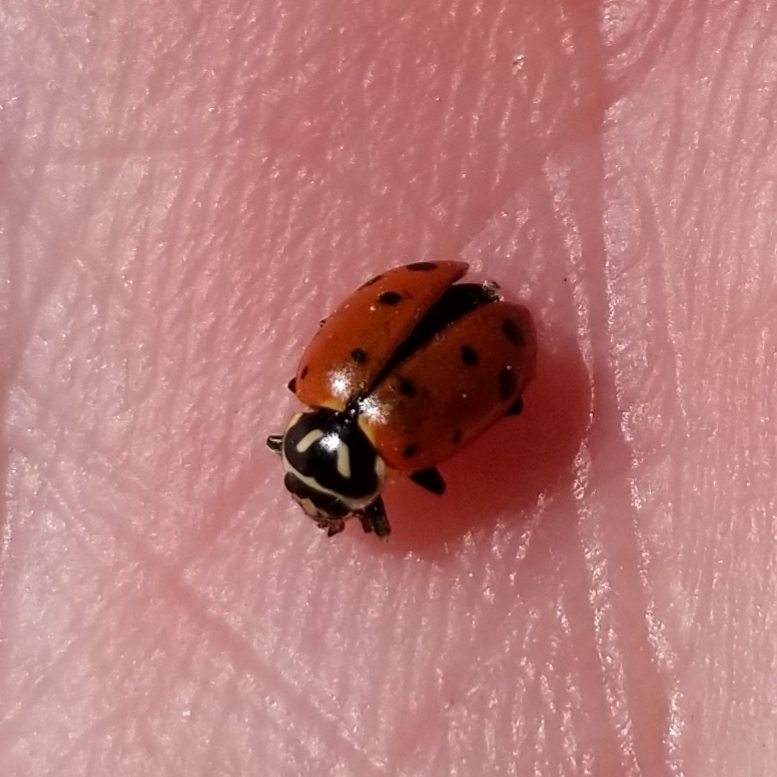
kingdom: Animalia
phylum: Arthropoda
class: Insecta
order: Coleoptera
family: Coccinellidae
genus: Hippodamia
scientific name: Hippodamia convergens
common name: Convergent lady beetle
